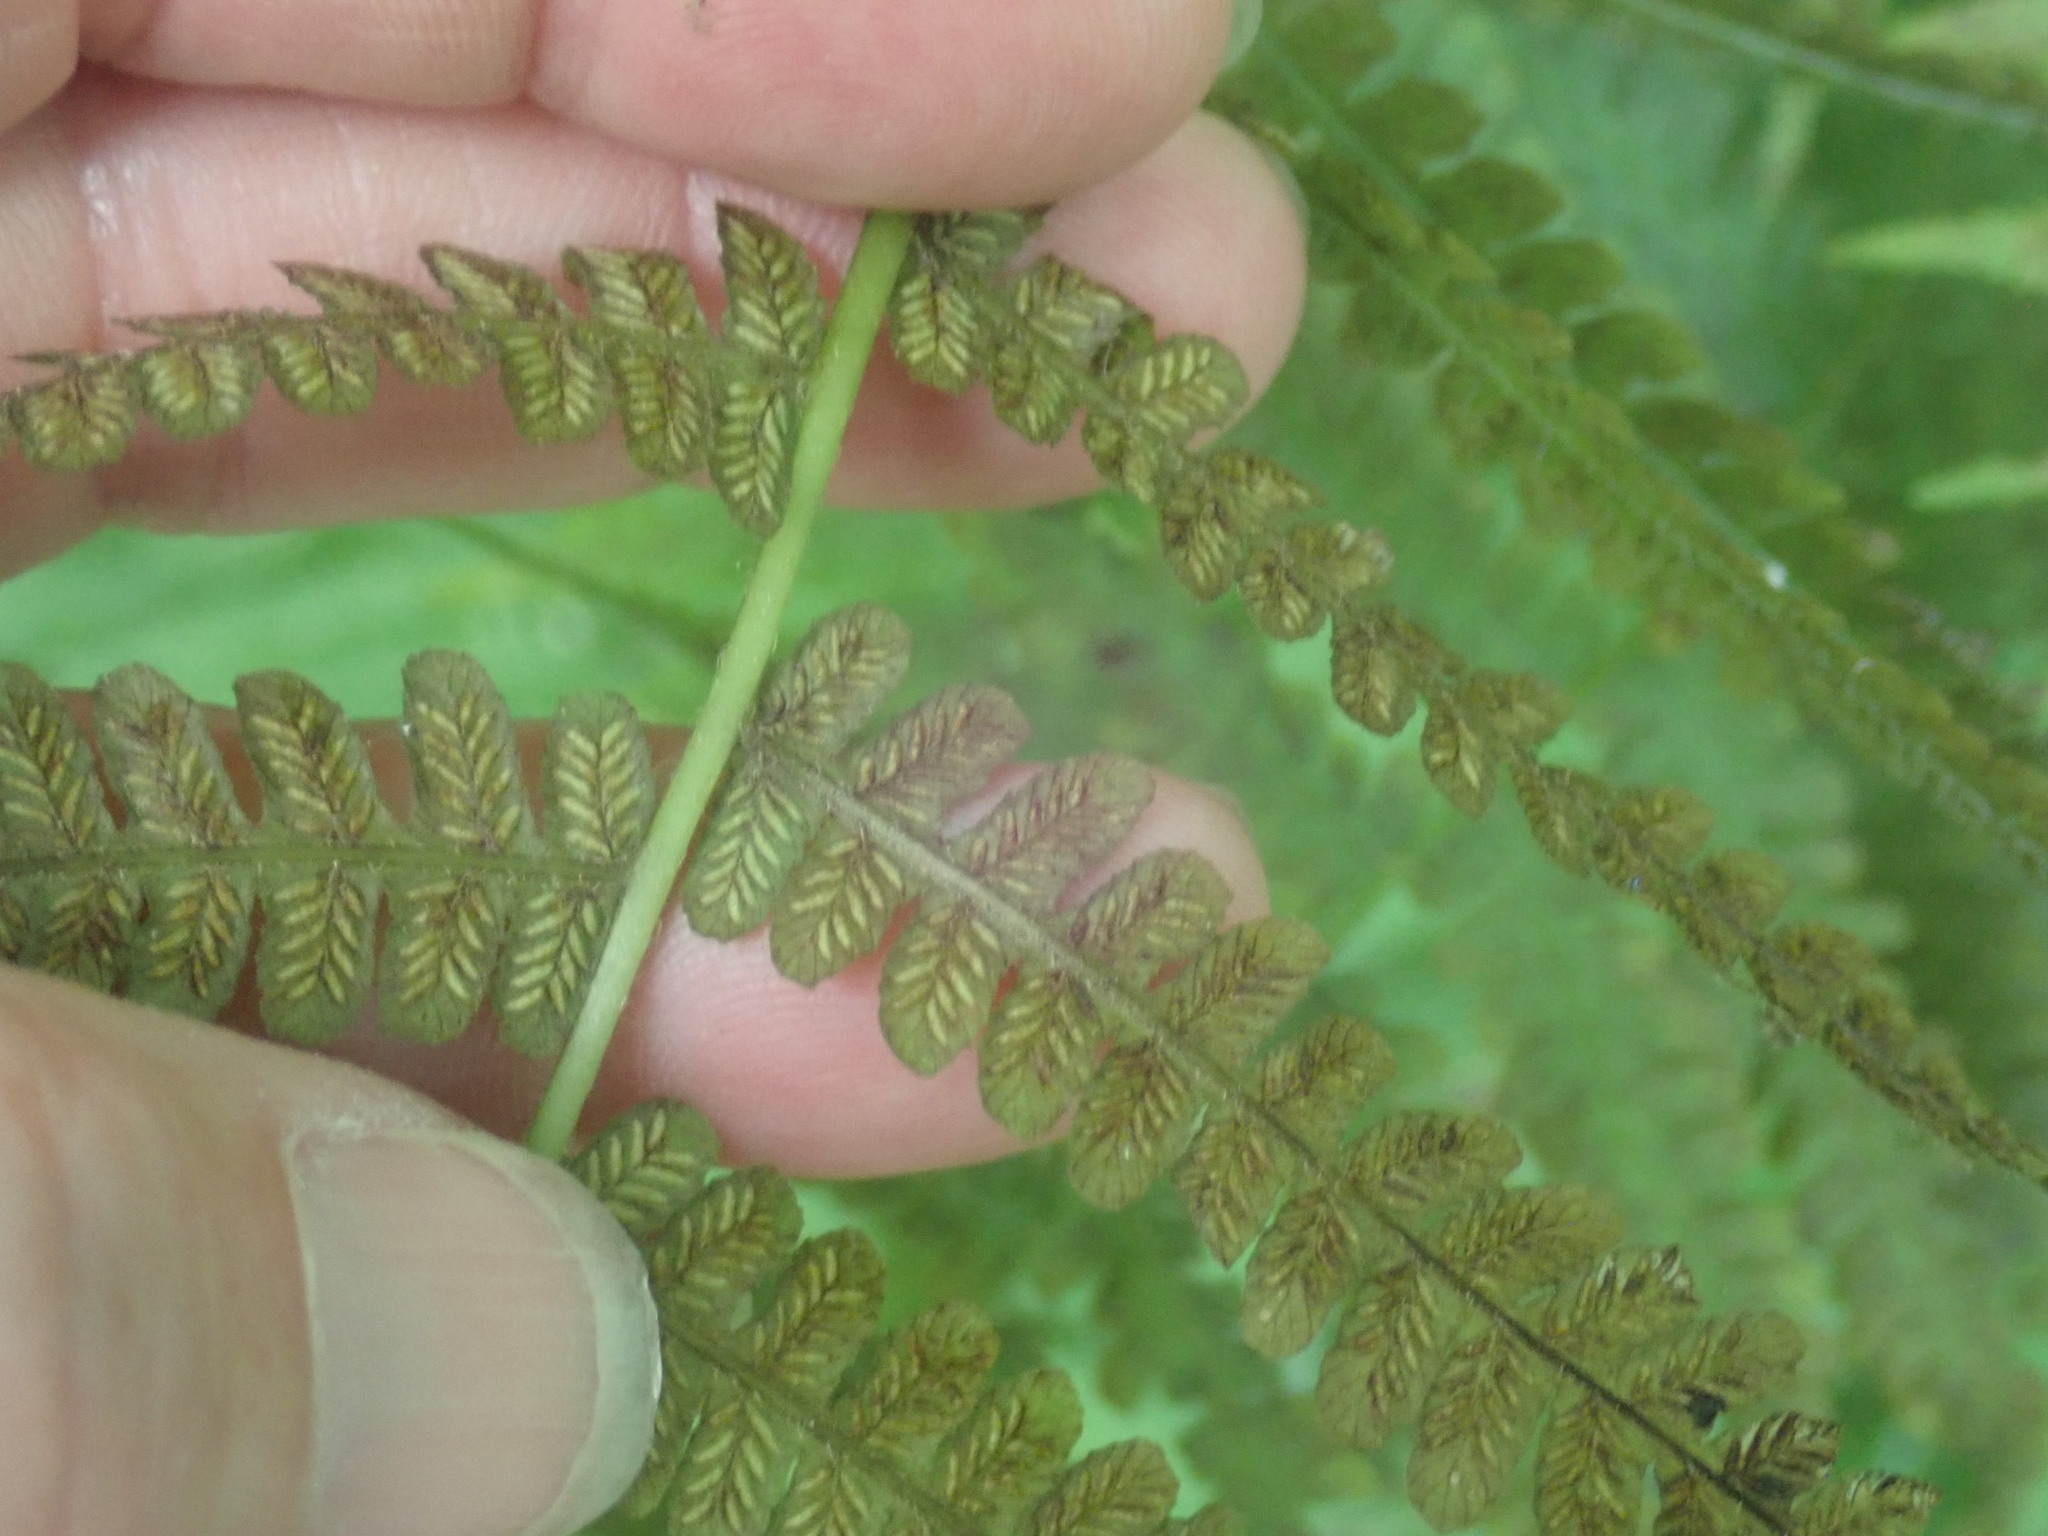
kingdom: Plantae
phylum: Tracheophyta
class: Polypodiopsida
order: Polypodiales
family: Athyriaceae
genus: Deparia
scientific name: Deparia acrostichoides
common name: Silver false spleenwort
